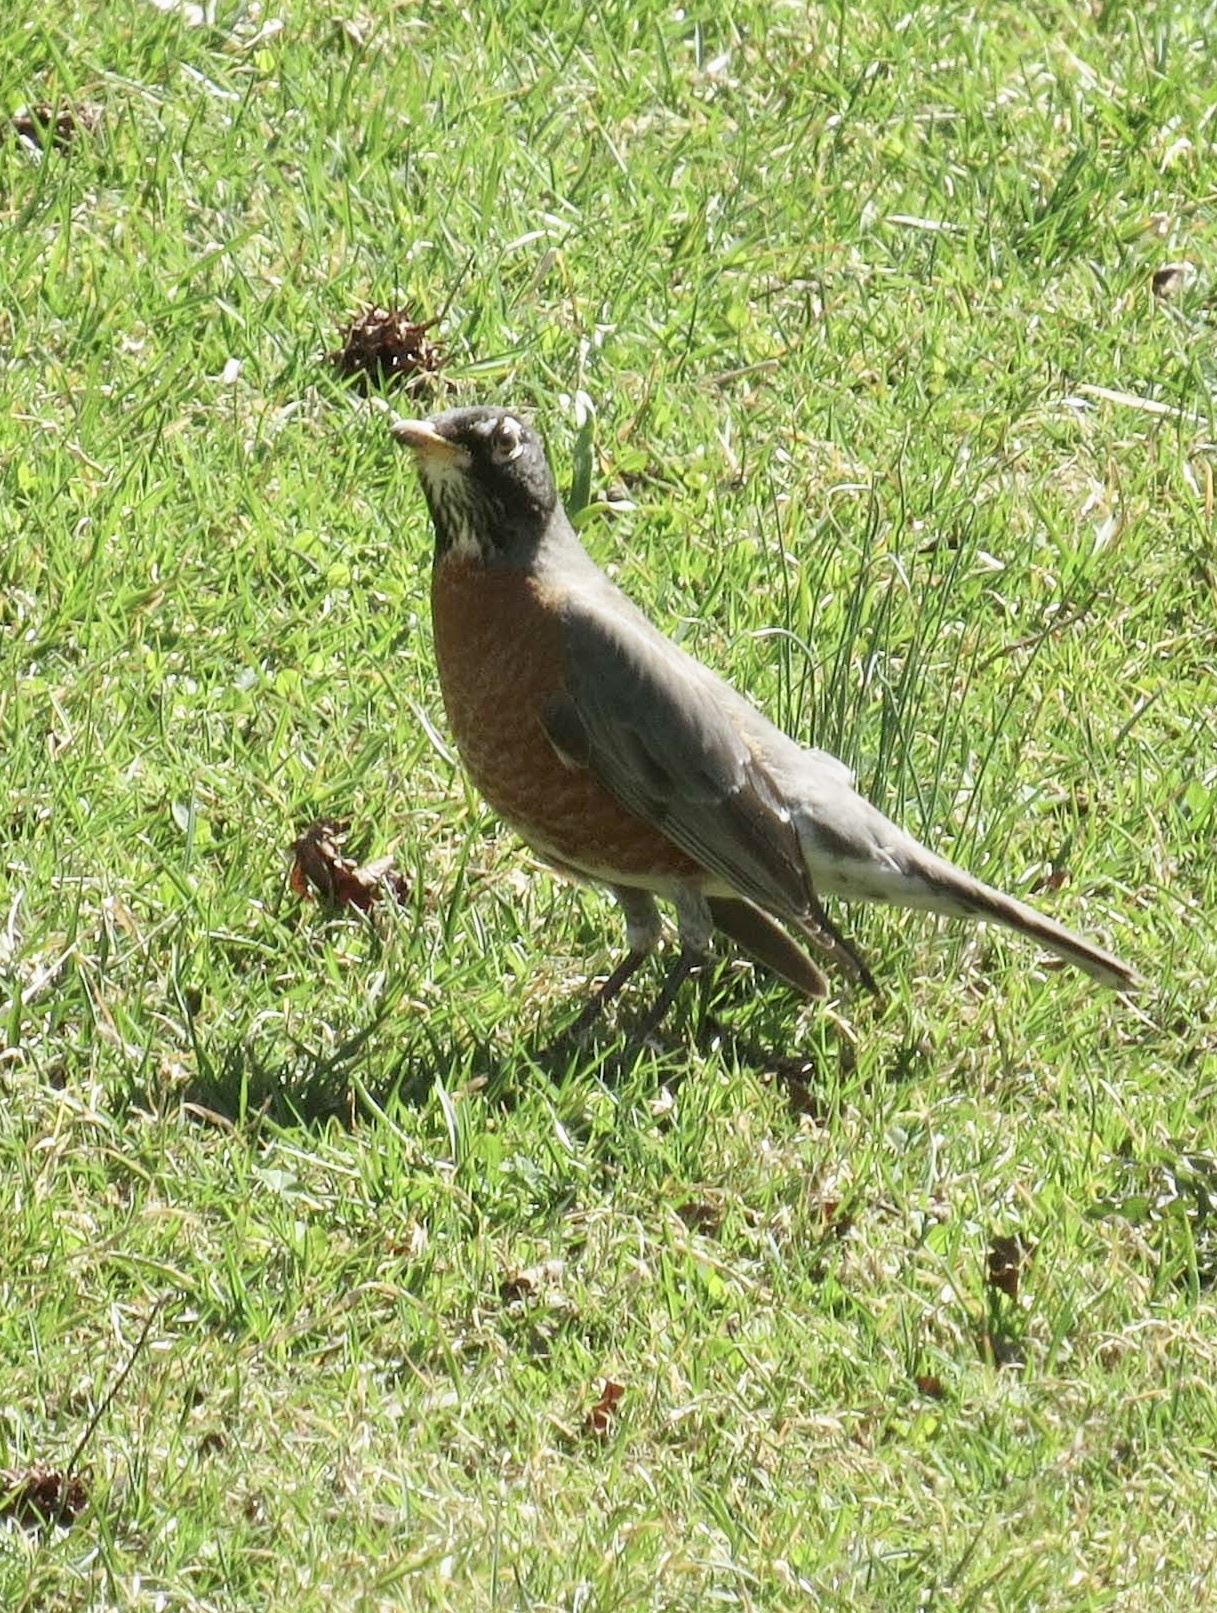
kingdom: Animalia
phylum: Chordata
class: Aves
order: Passeriformes
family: Turdidae
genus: Turdus
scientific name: Turdus migratorius
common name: American robin
